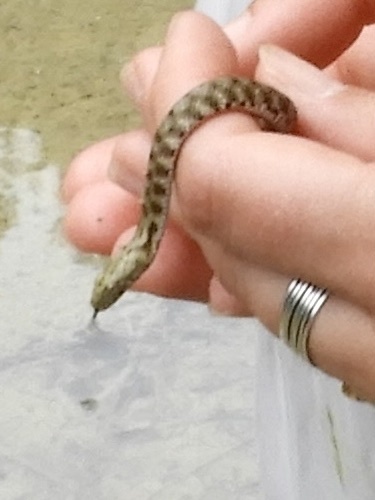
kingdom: Animalia
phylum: Chordata
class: Squamata
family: Colubridae
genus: Natrix
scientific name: Natrix tessellata
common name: Dice snake
